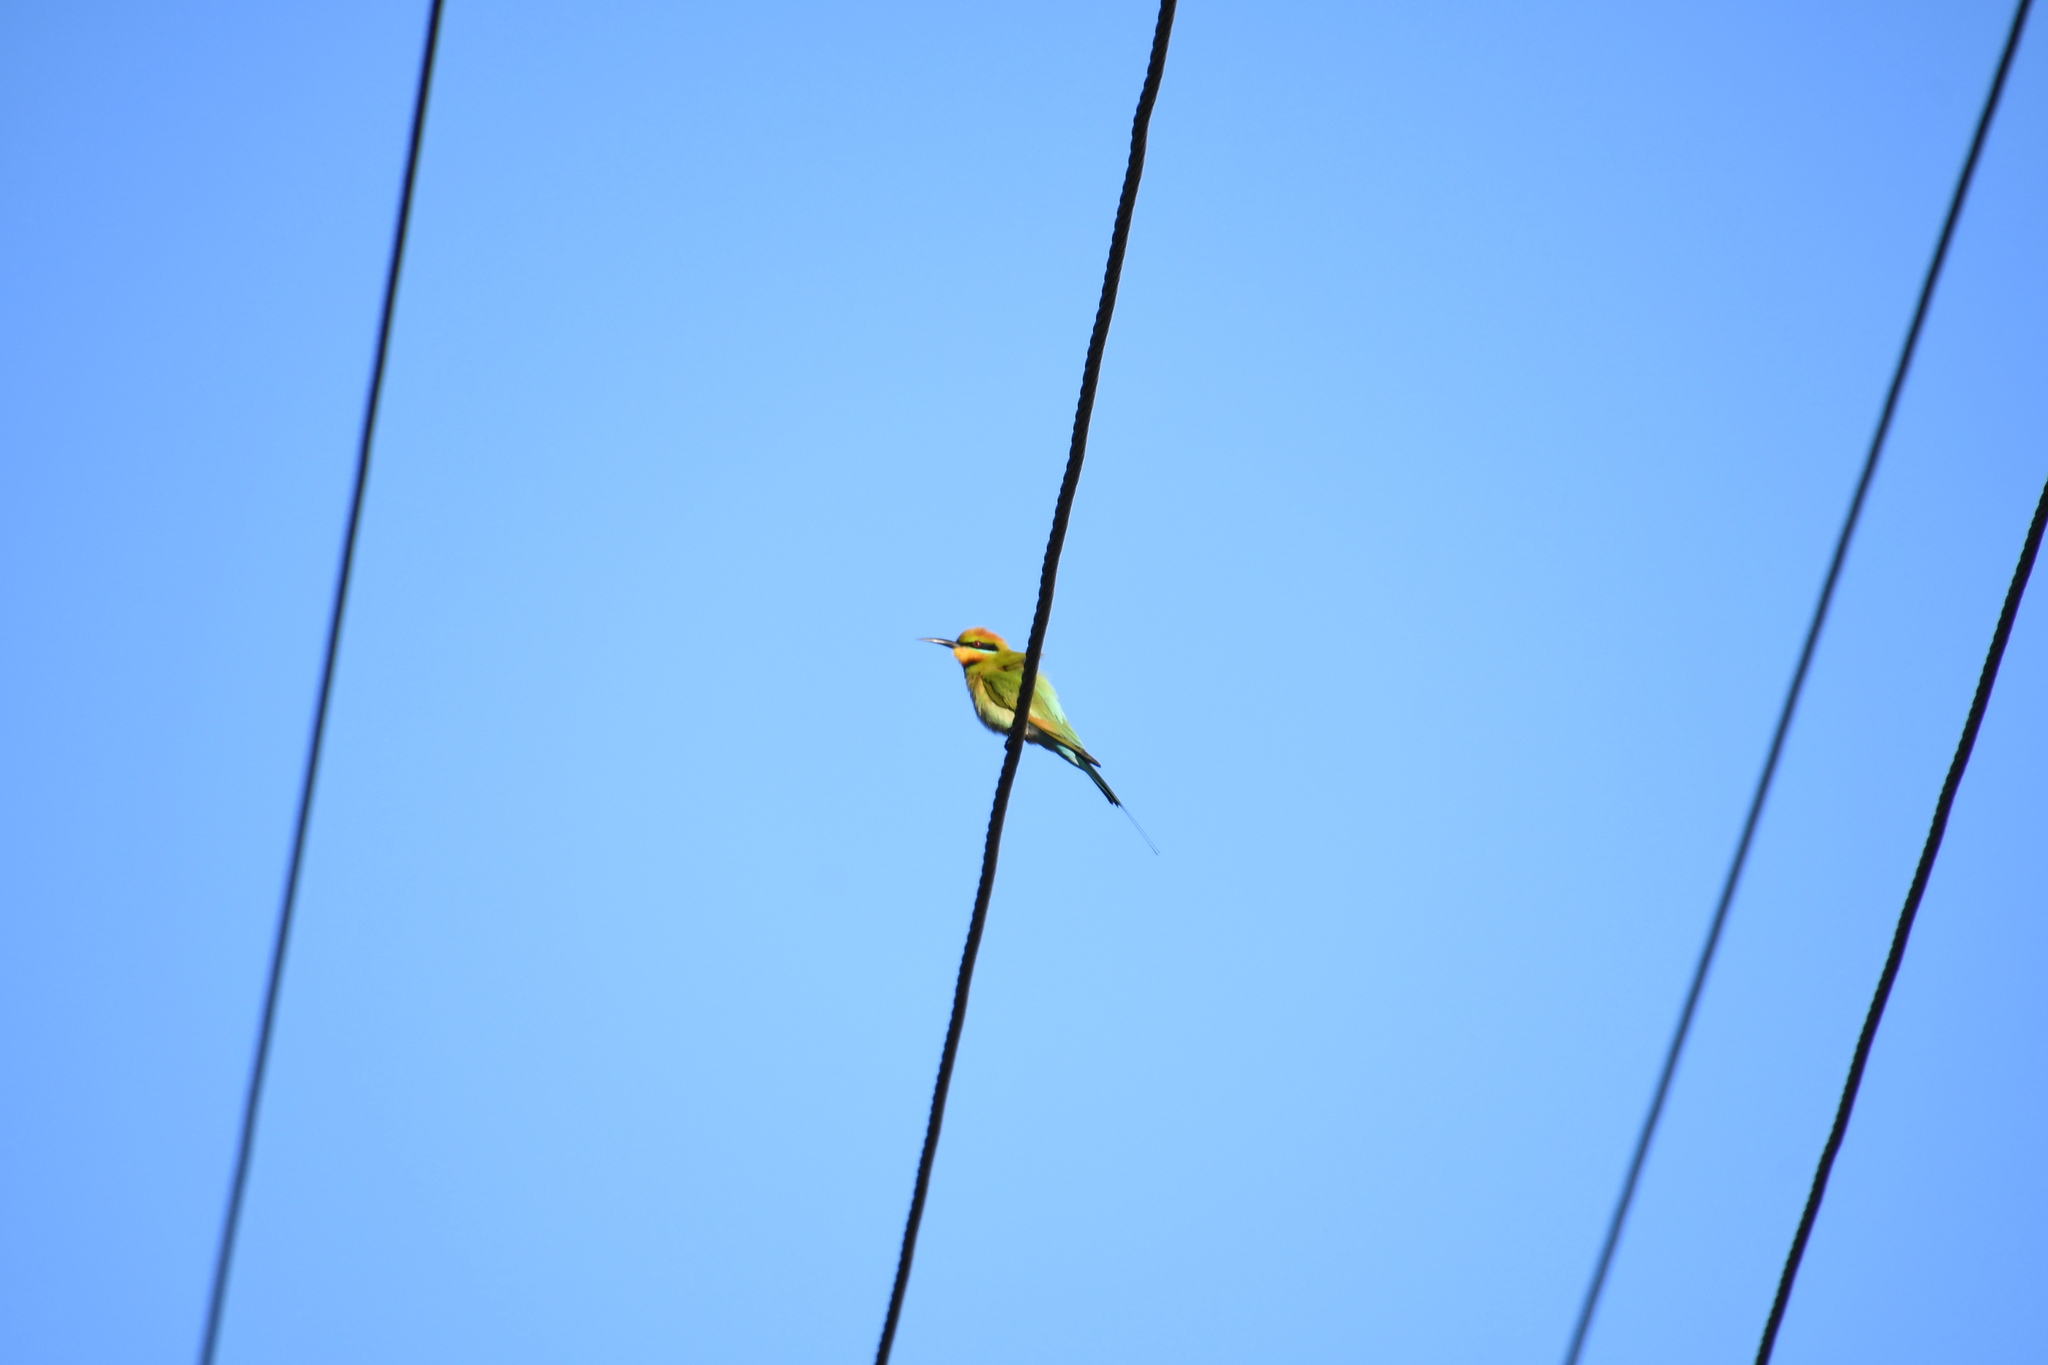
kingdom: Animalia
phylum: Chordata
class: Aves
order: Coraciiformes
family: Meropidae
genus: Merops
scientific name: Merops ornatus
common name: Rainbow bee-eater
